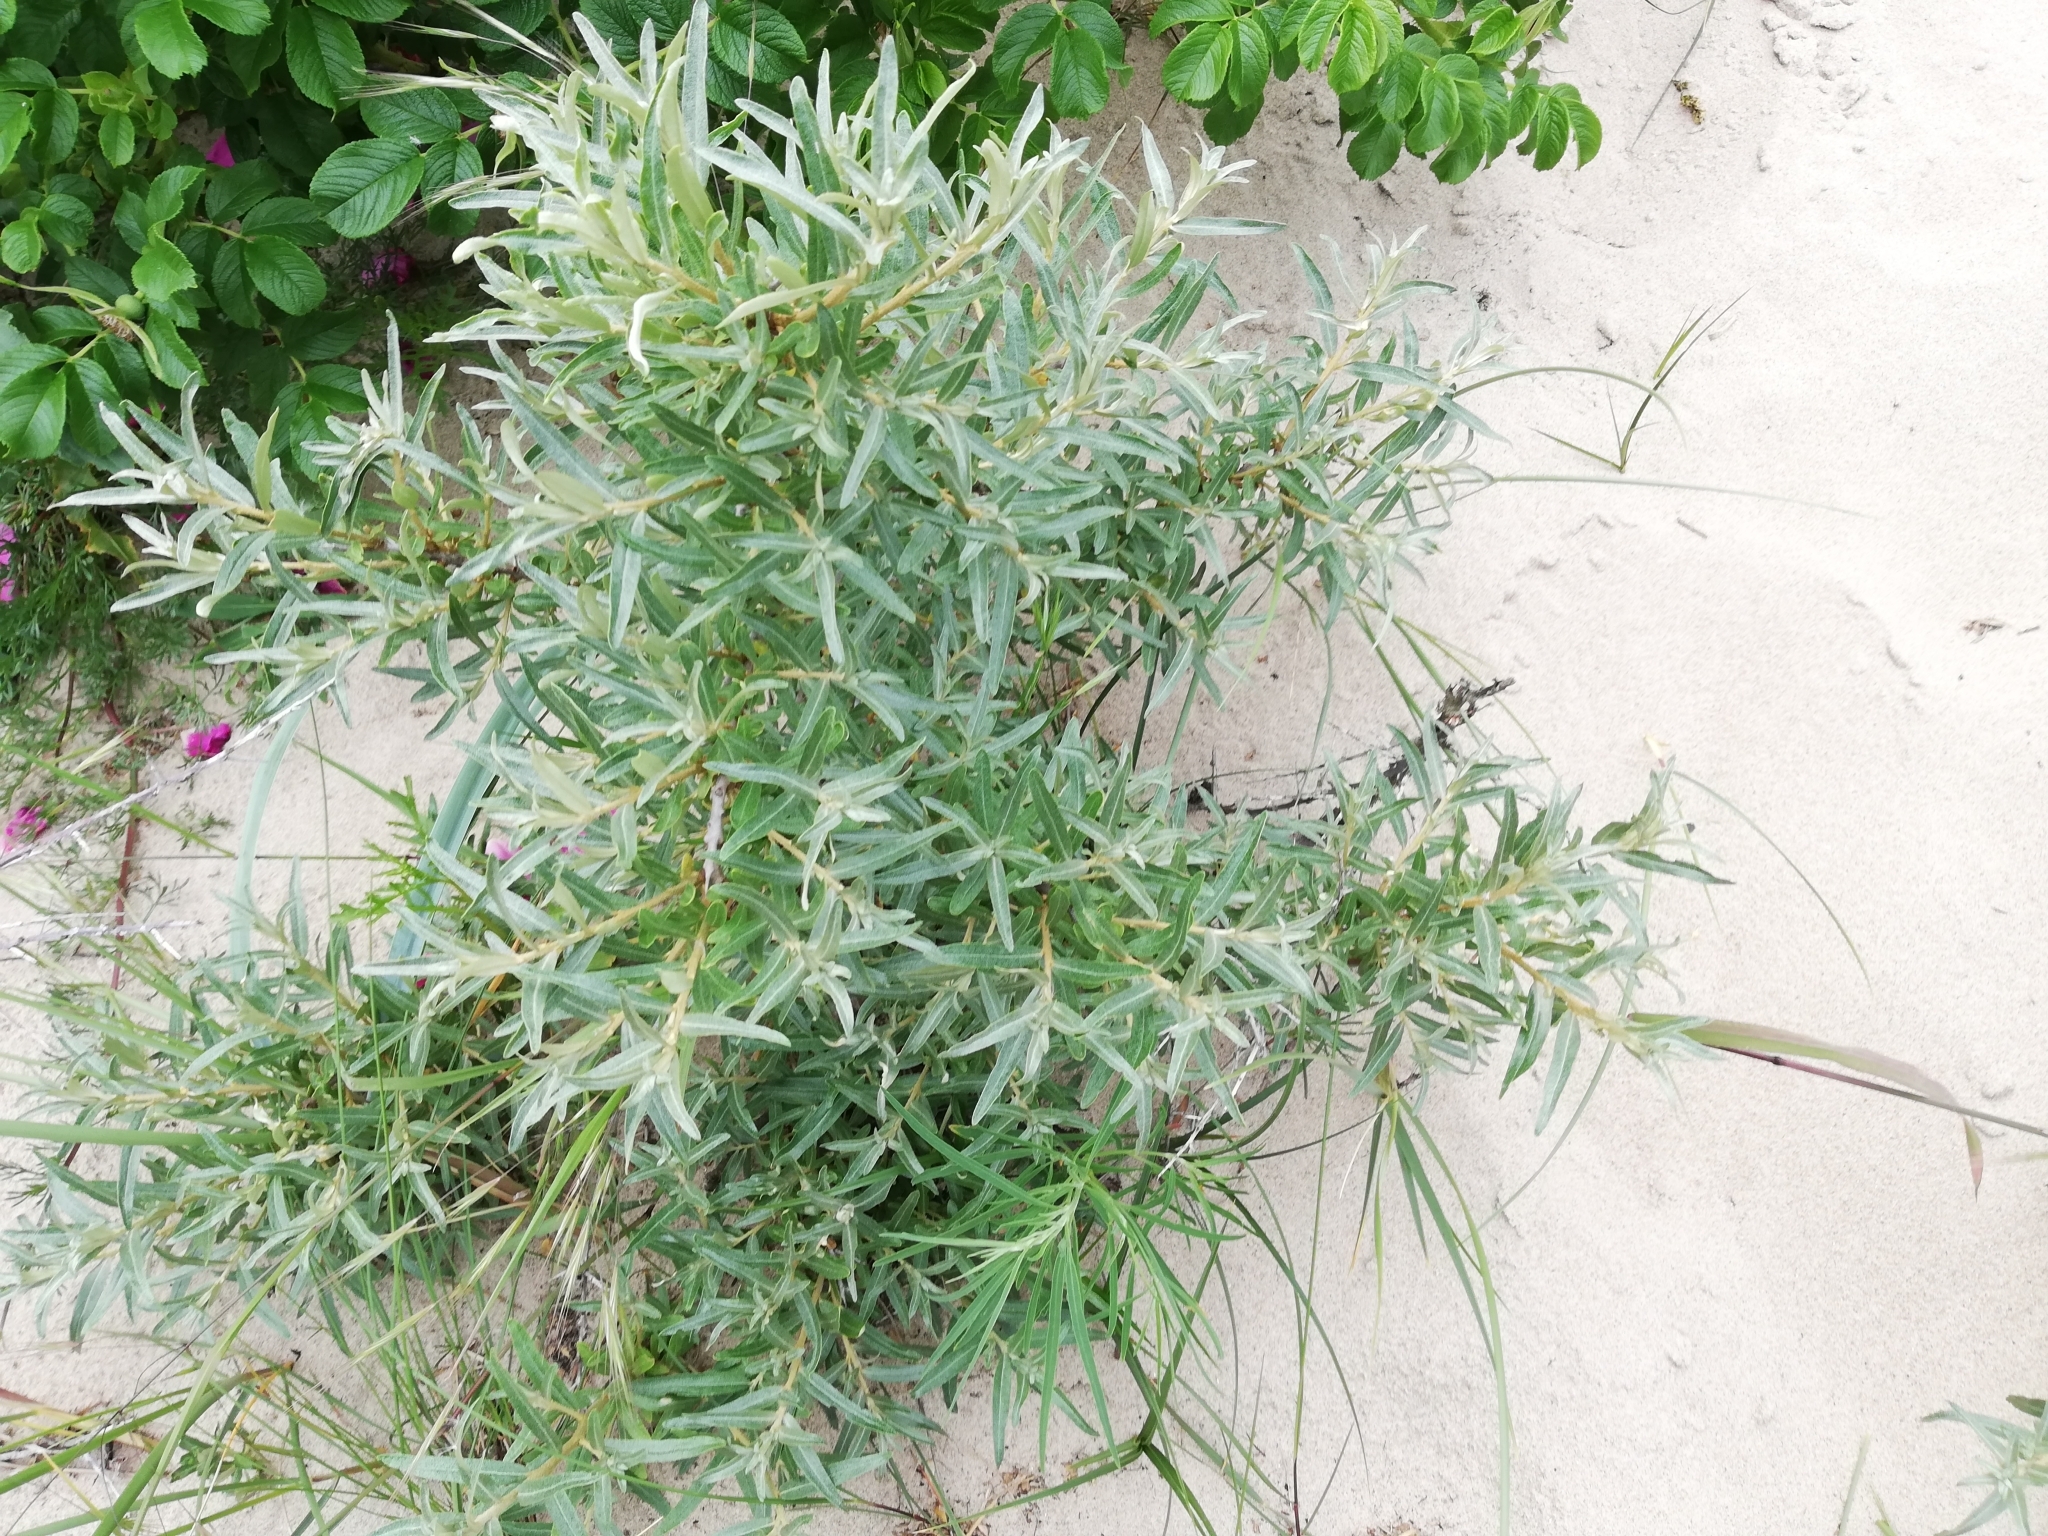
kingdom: Plantae
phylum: Tracheophyta
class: Magnoliopsida
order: Rosales
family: Elaeagnaceae
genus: Hippophae
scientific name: Hippophae rhamnoides
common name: Sea-buckthorn
